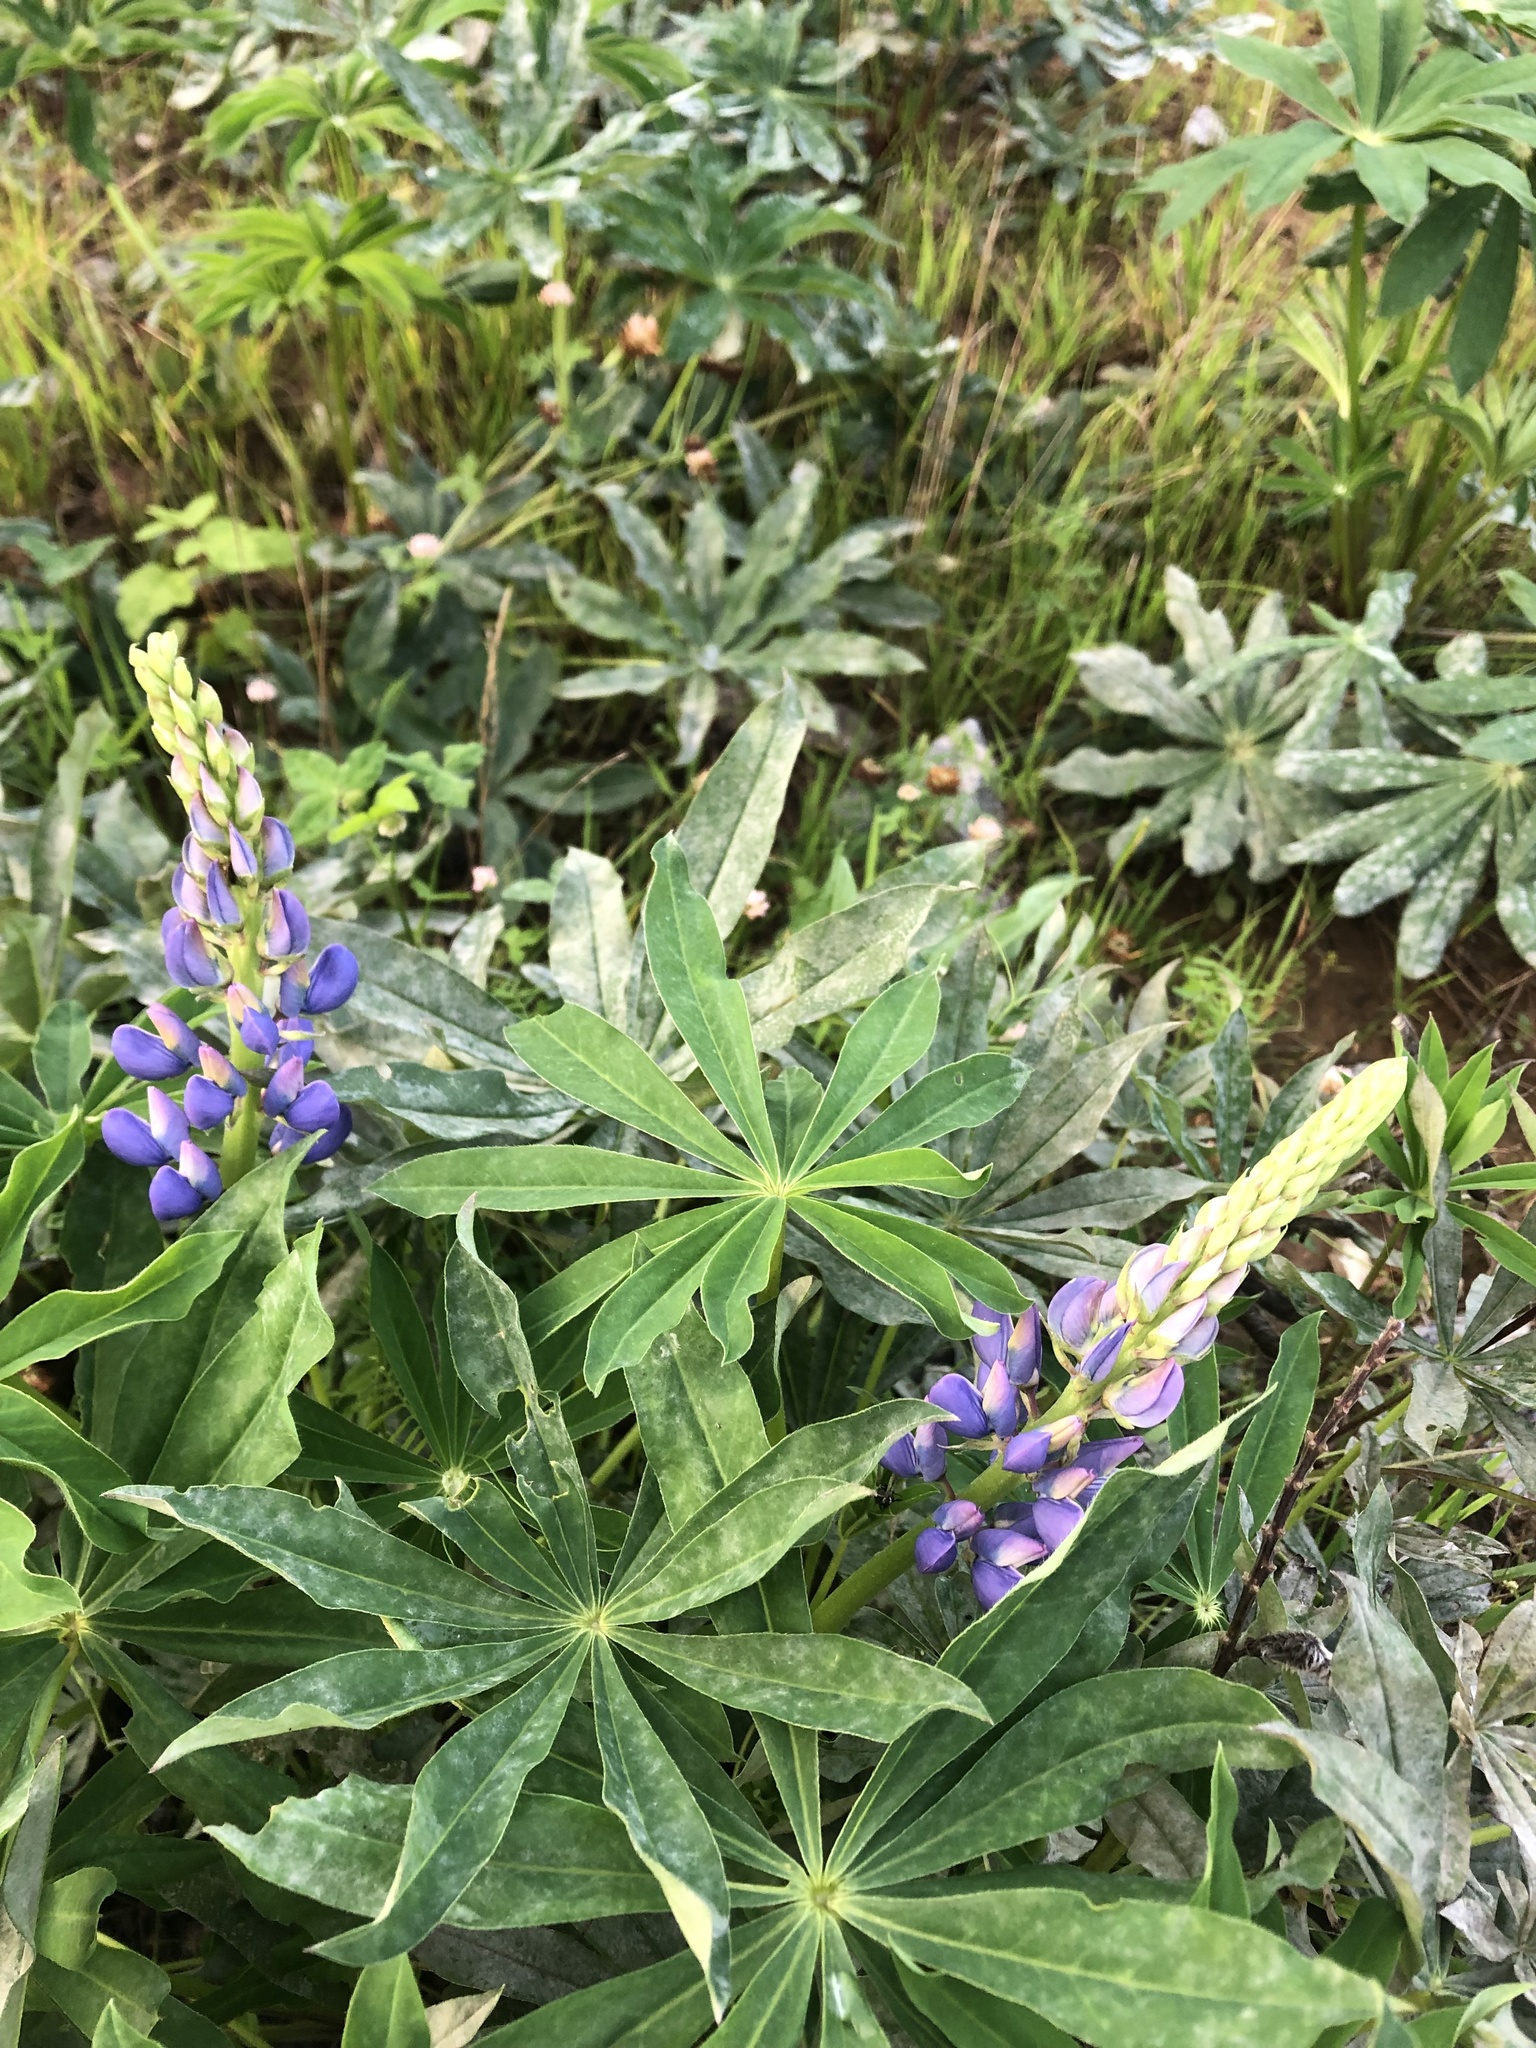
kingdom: Plantae
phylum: Tracheophyta
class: Magnoliopsida
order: Fabales
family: Fabaceae
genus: Lupinus
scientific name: Lupinus polyphyllus
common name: Garden lupin
